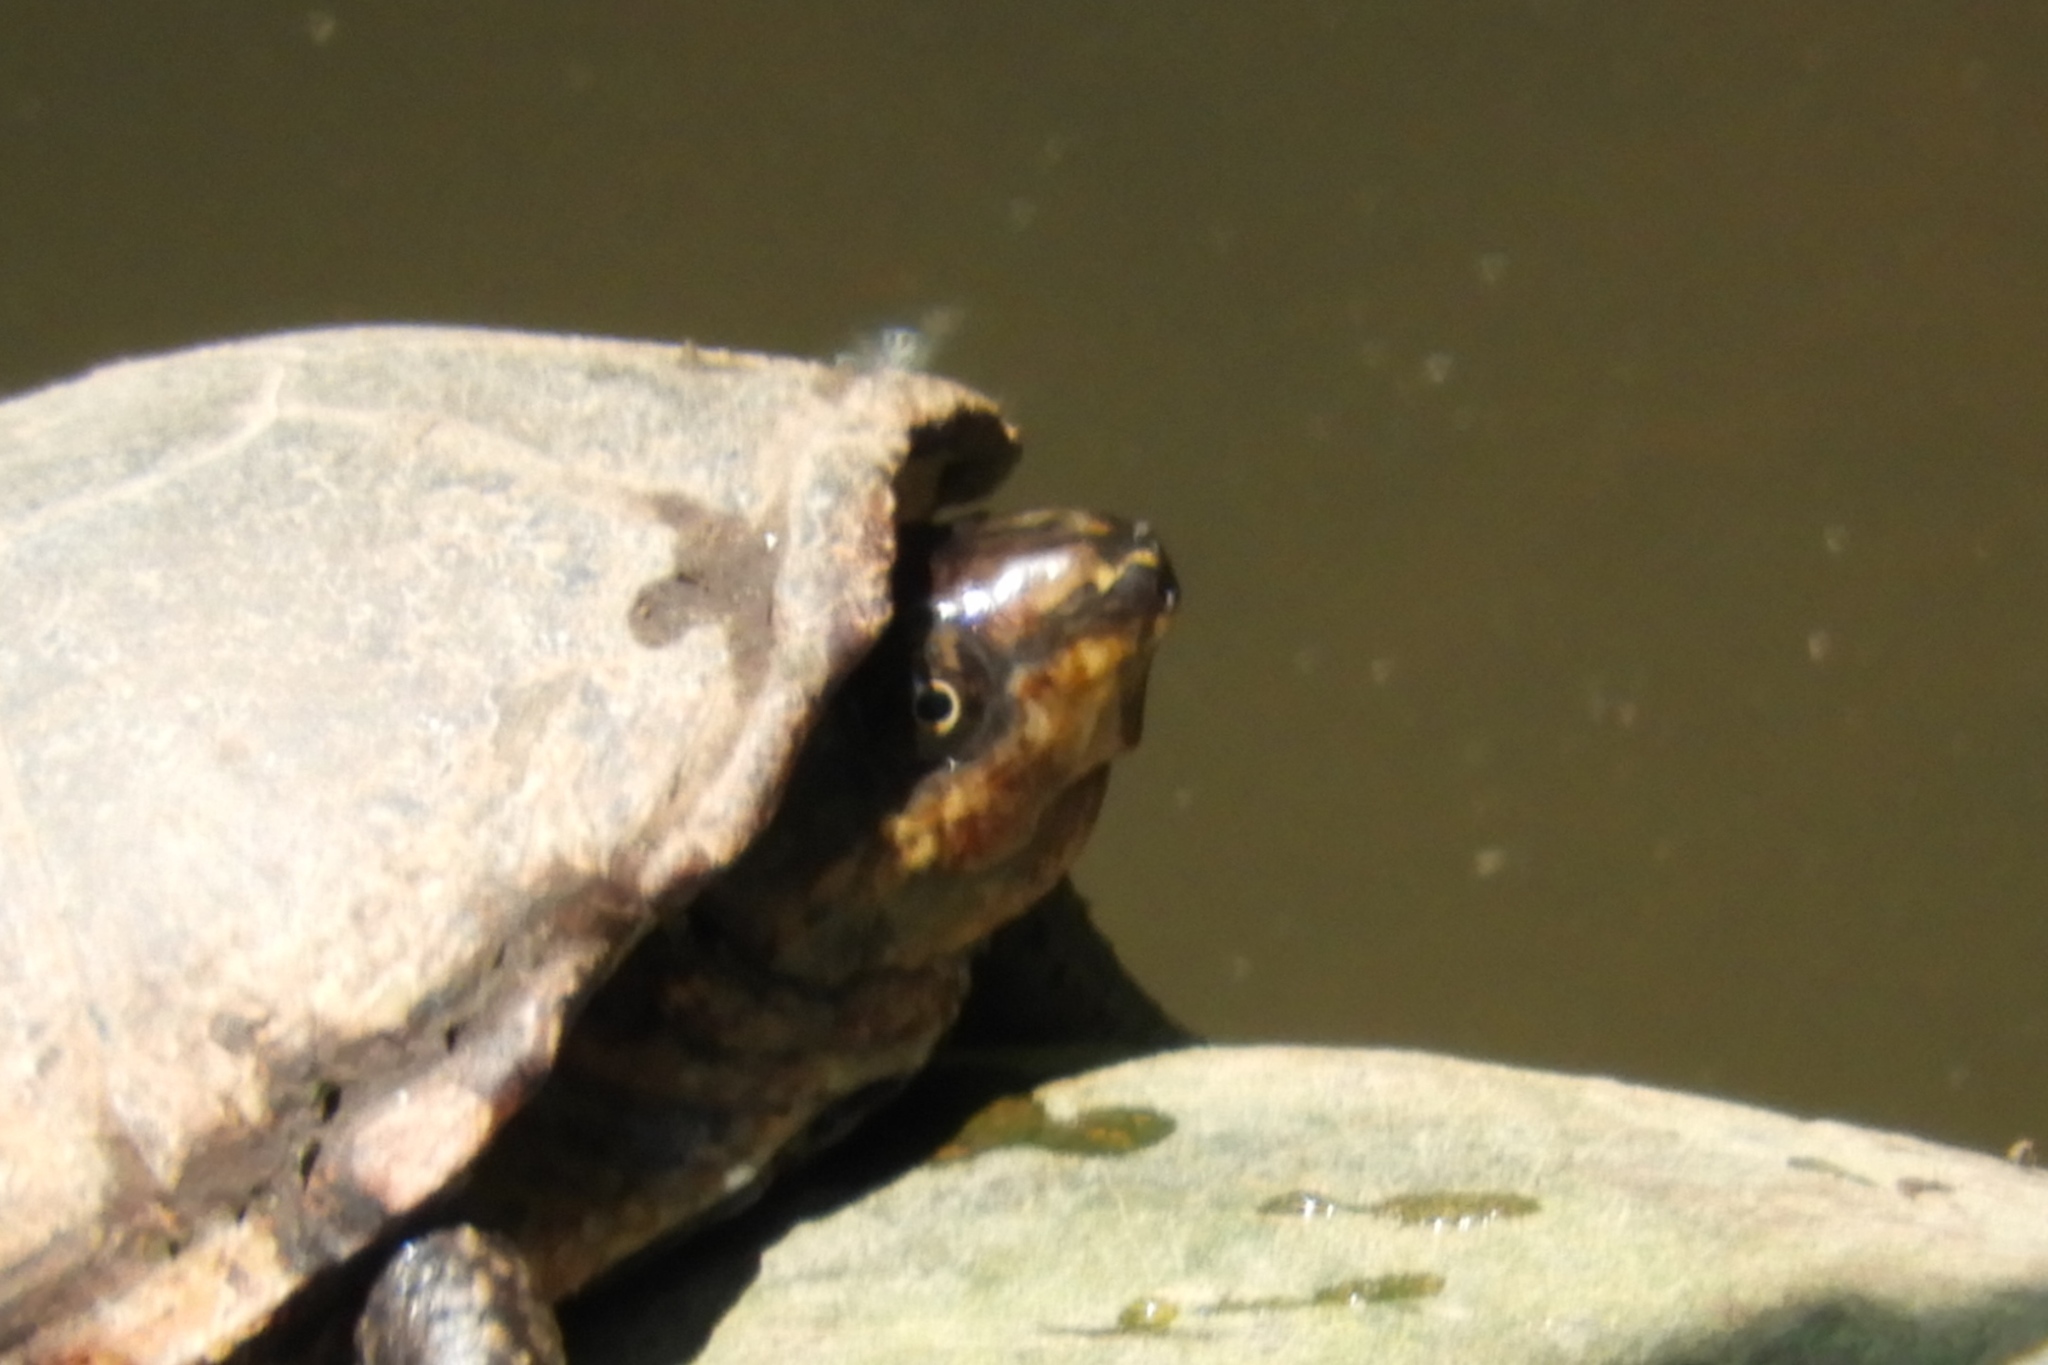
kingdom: Animalia
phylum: Chordata
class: Testudines
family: Kinosternidae
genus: Sternotherus
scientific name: Sternotherus odoratus
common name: Common musk turtle
